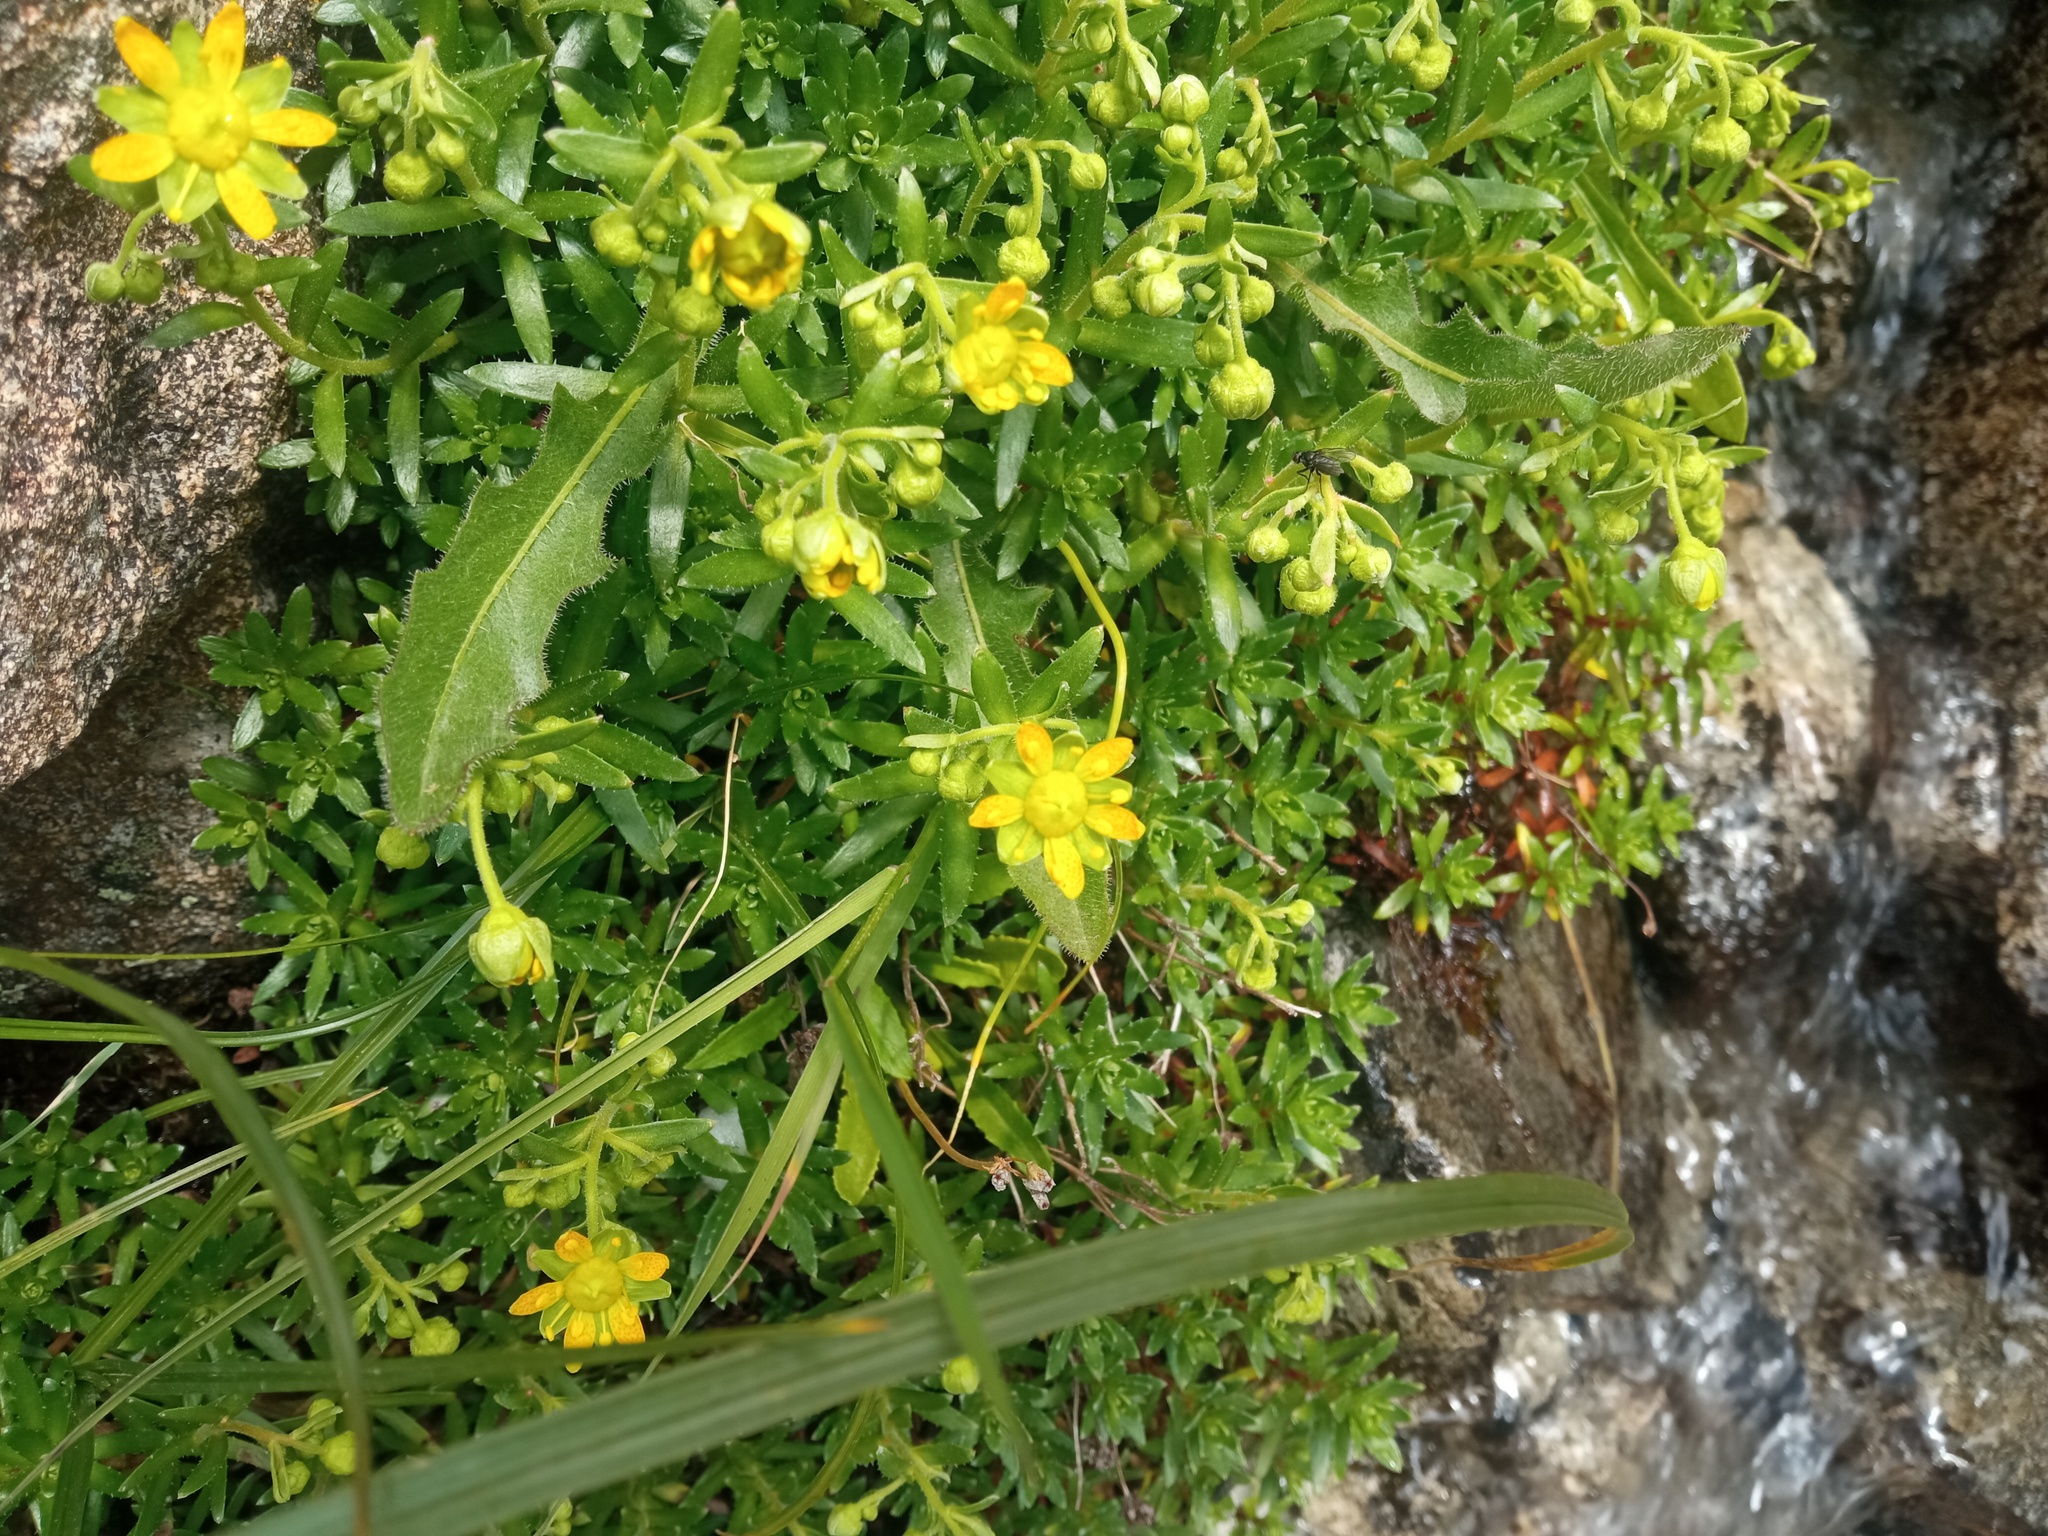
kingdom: Plantae
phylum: Tracheophyta
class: Magnoliopsida
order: Saxifragales
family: Saxifragaceae
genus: Saxifraga
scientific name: Saxifraga aizoides
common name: Yellow mountain saxifrage
